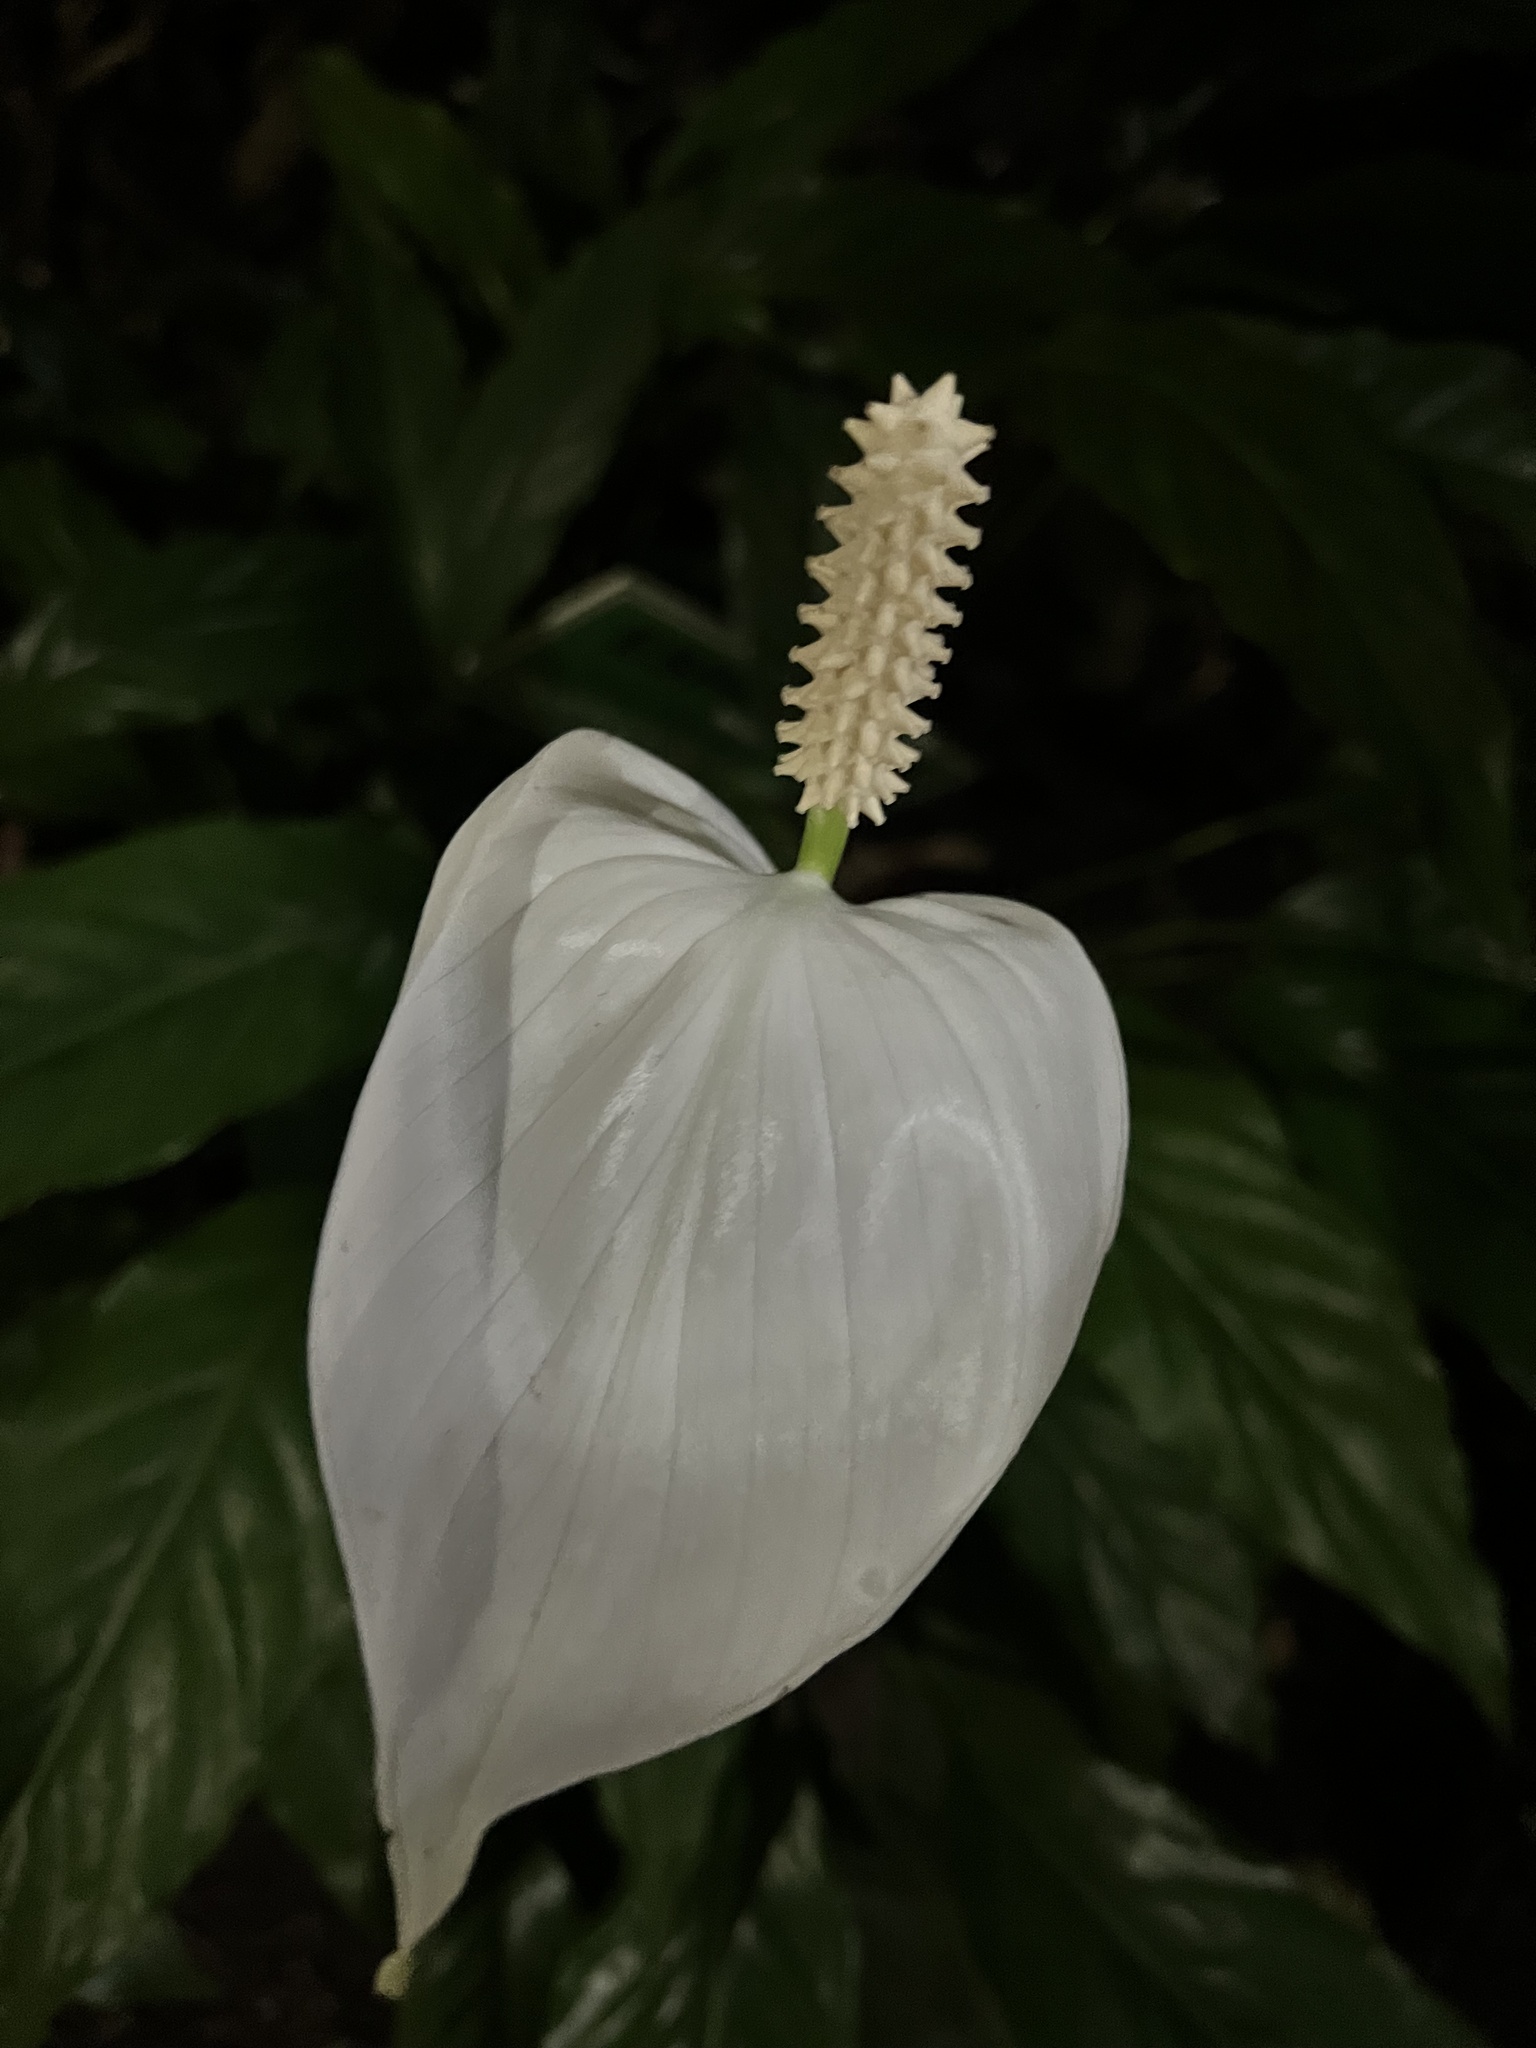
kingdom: Plantae
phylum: Tracheophyta
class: Liliopsida
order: Alismatales
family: Araceae
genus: Spathiphyllum
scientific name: Spathiphyllum wallisii
